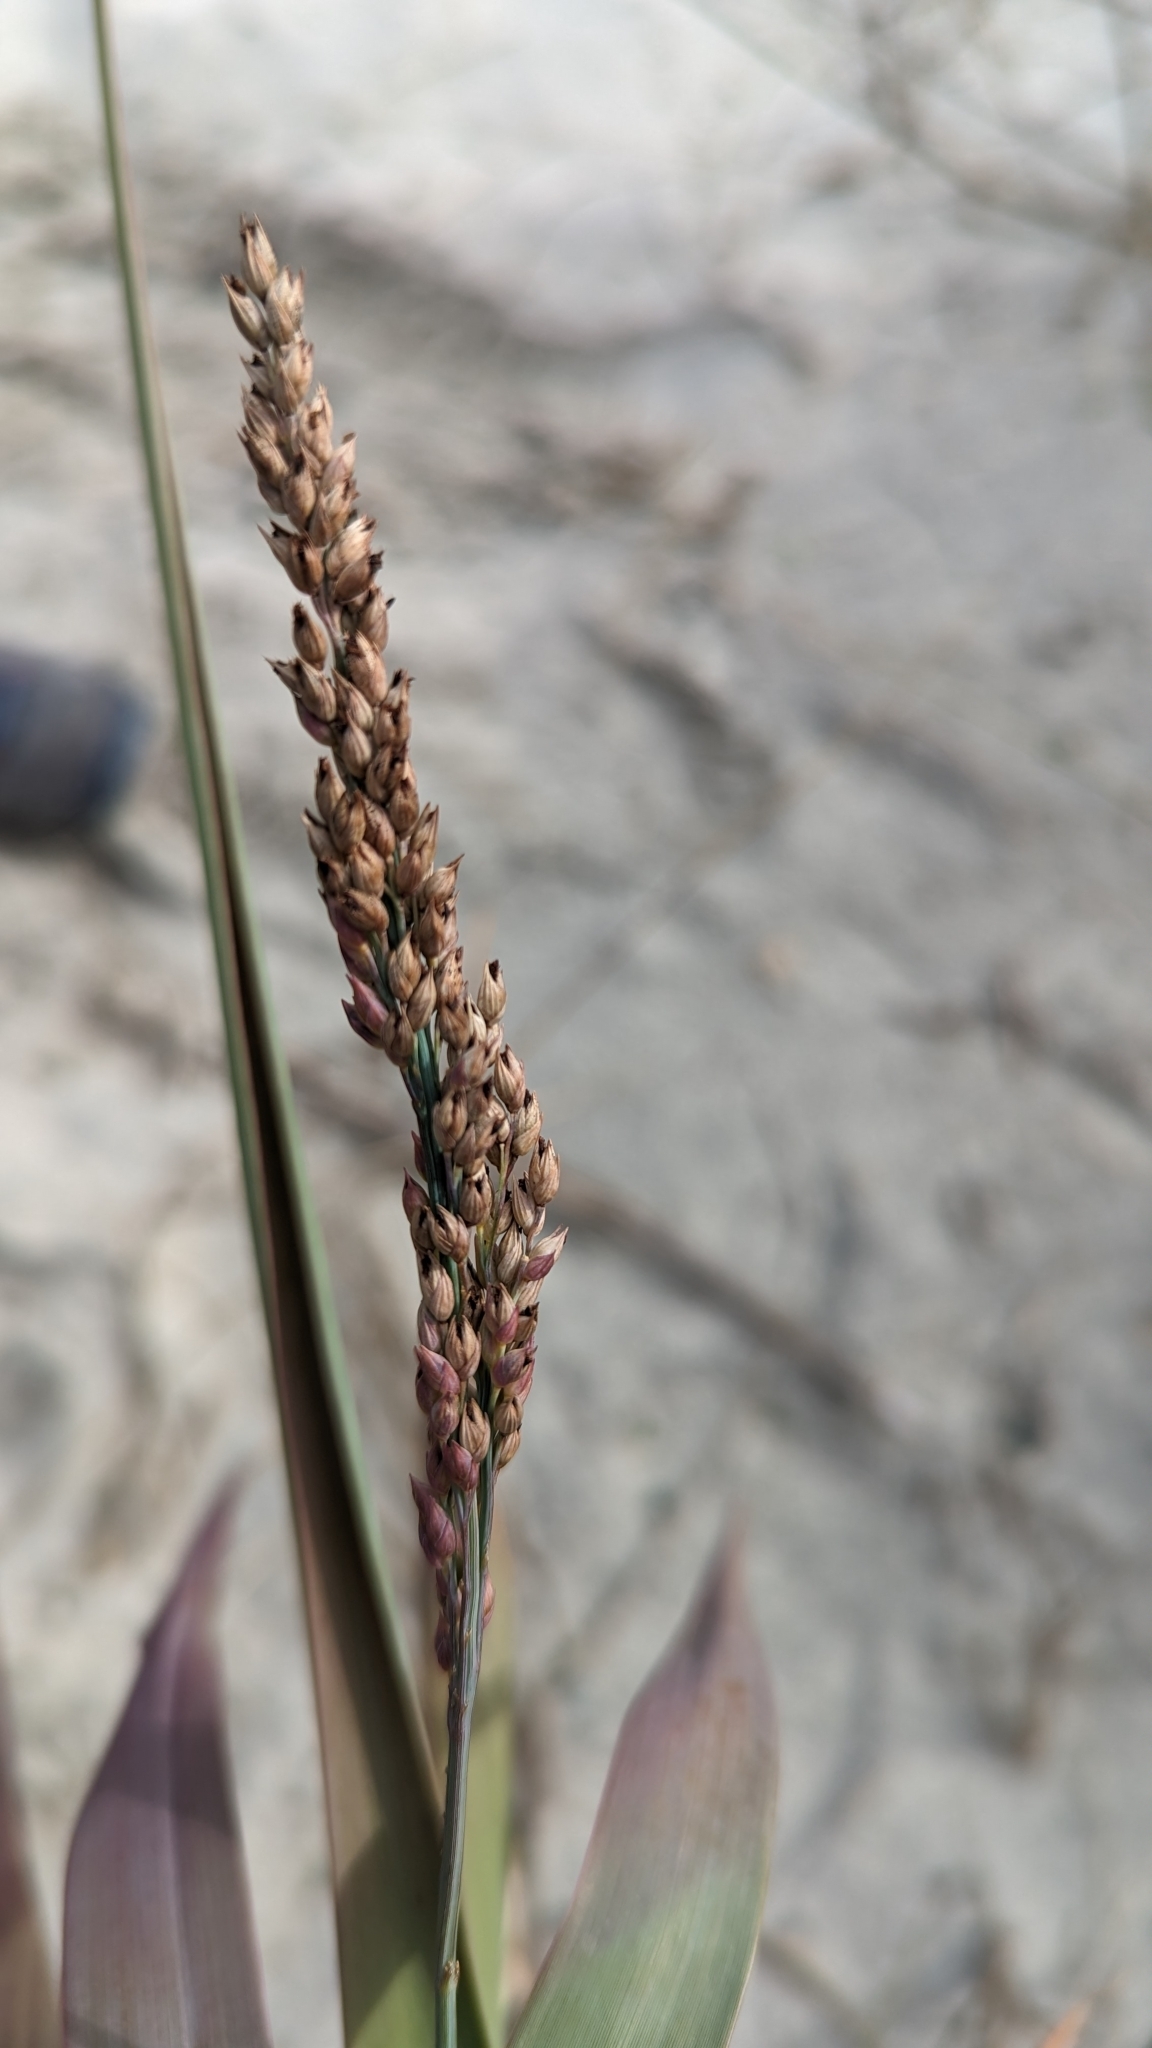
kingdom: Plantae
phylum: Tracheophyta
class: Liliopsida
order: Poales
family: Poaceae
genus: Panicum
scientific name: Panicum amarum
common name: Bitter panicum
